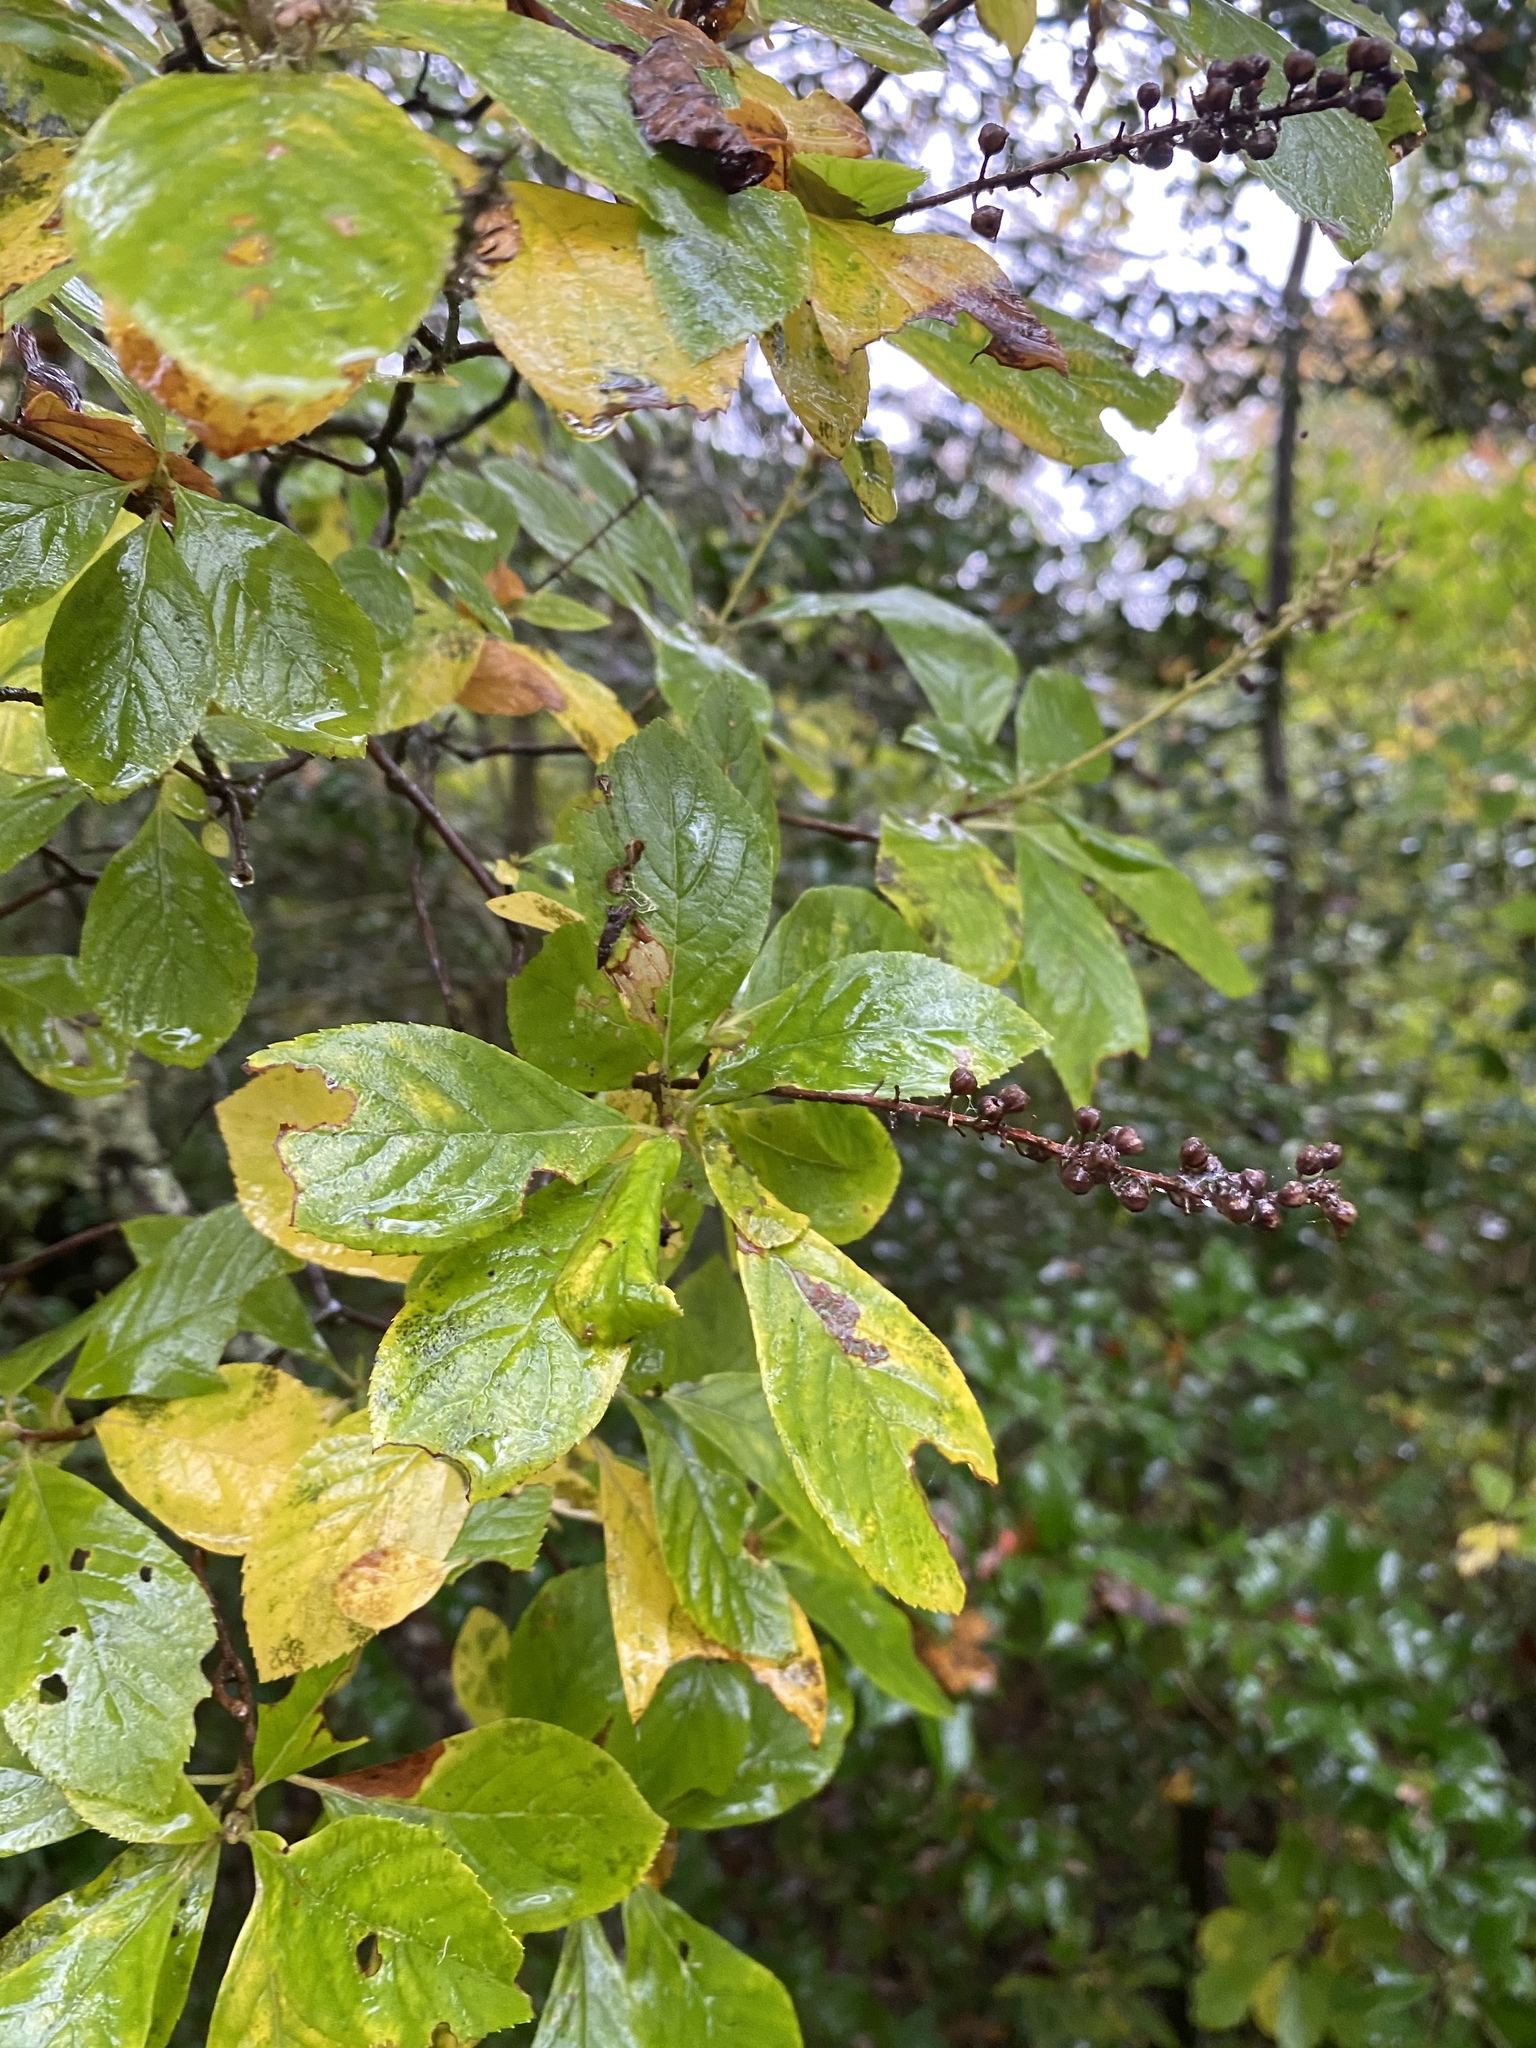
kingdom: Plantae
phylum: Tracheophyta
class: Magnoliopsida
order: Ericales
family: Clethraceae
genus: Clethra
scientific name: Clethra alnifolia
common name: Sweet pepperbush
